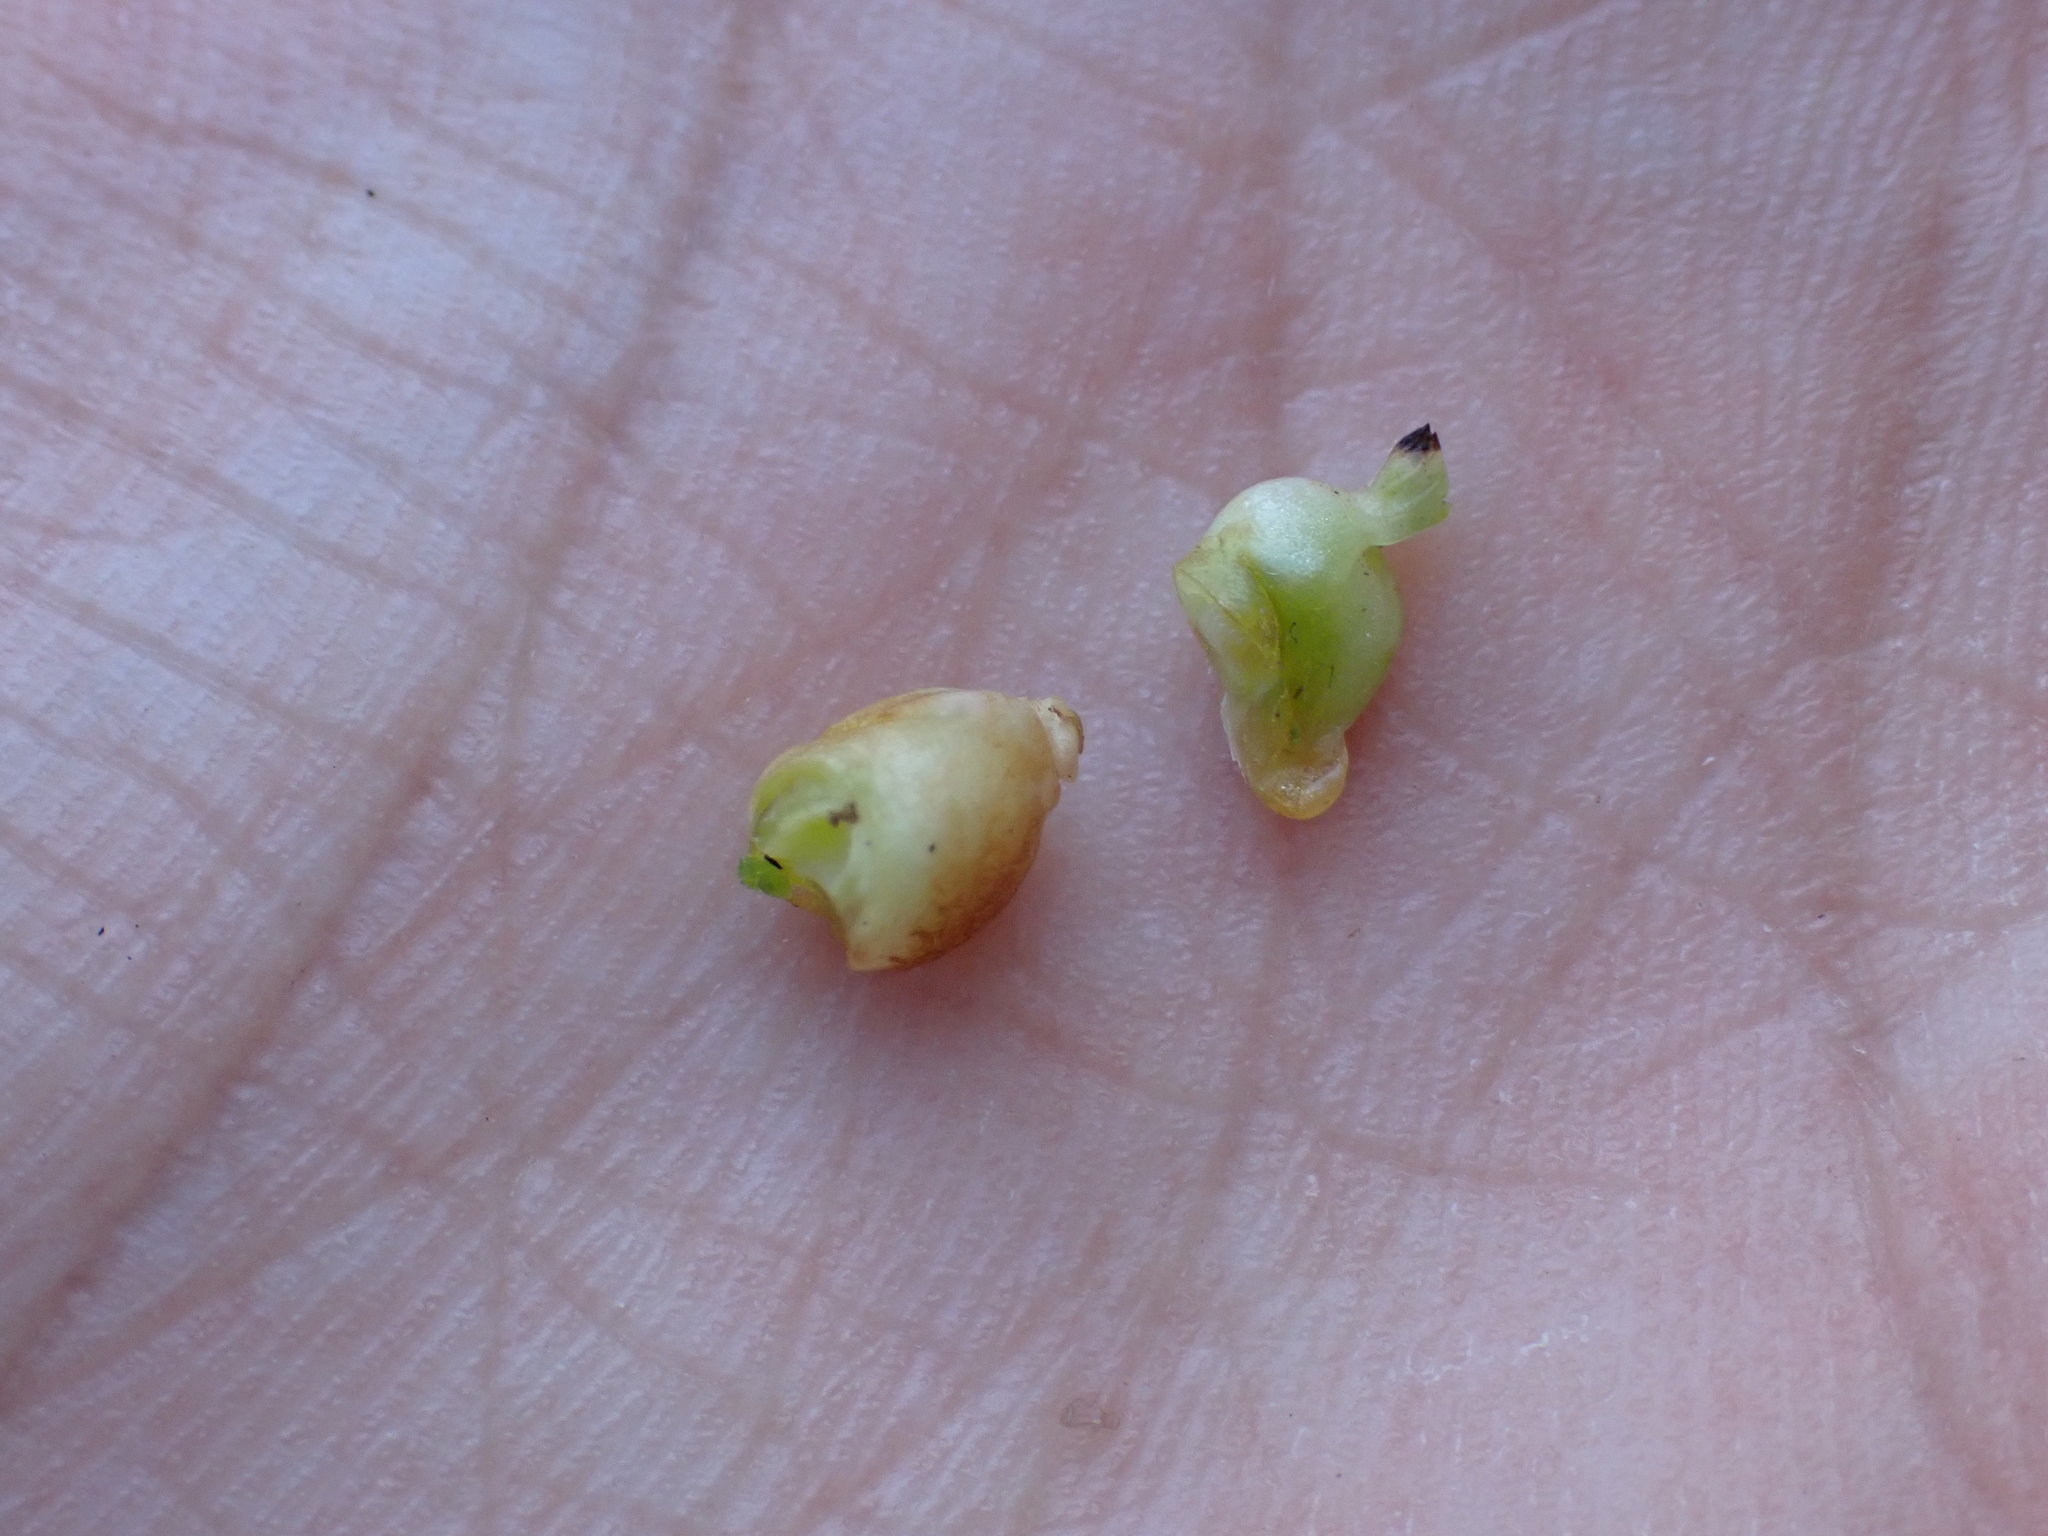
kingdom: Animalia
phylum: Arthropoda
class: Insecta
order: Hymenoptera
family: Cynipidae
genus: Xestophanes
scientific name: Xestophanes potentillae
